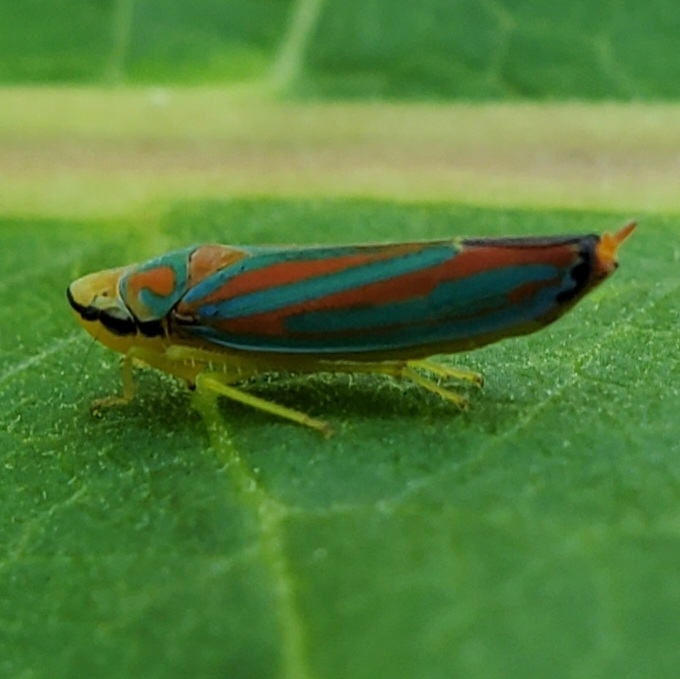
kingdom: Animalia
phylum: Arthropoda
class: Insecta
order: Hemiptera
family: Cicadellidae
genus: Graphocephala
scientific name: Graphocephala coccinea
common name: Candy-striped leafhopper
